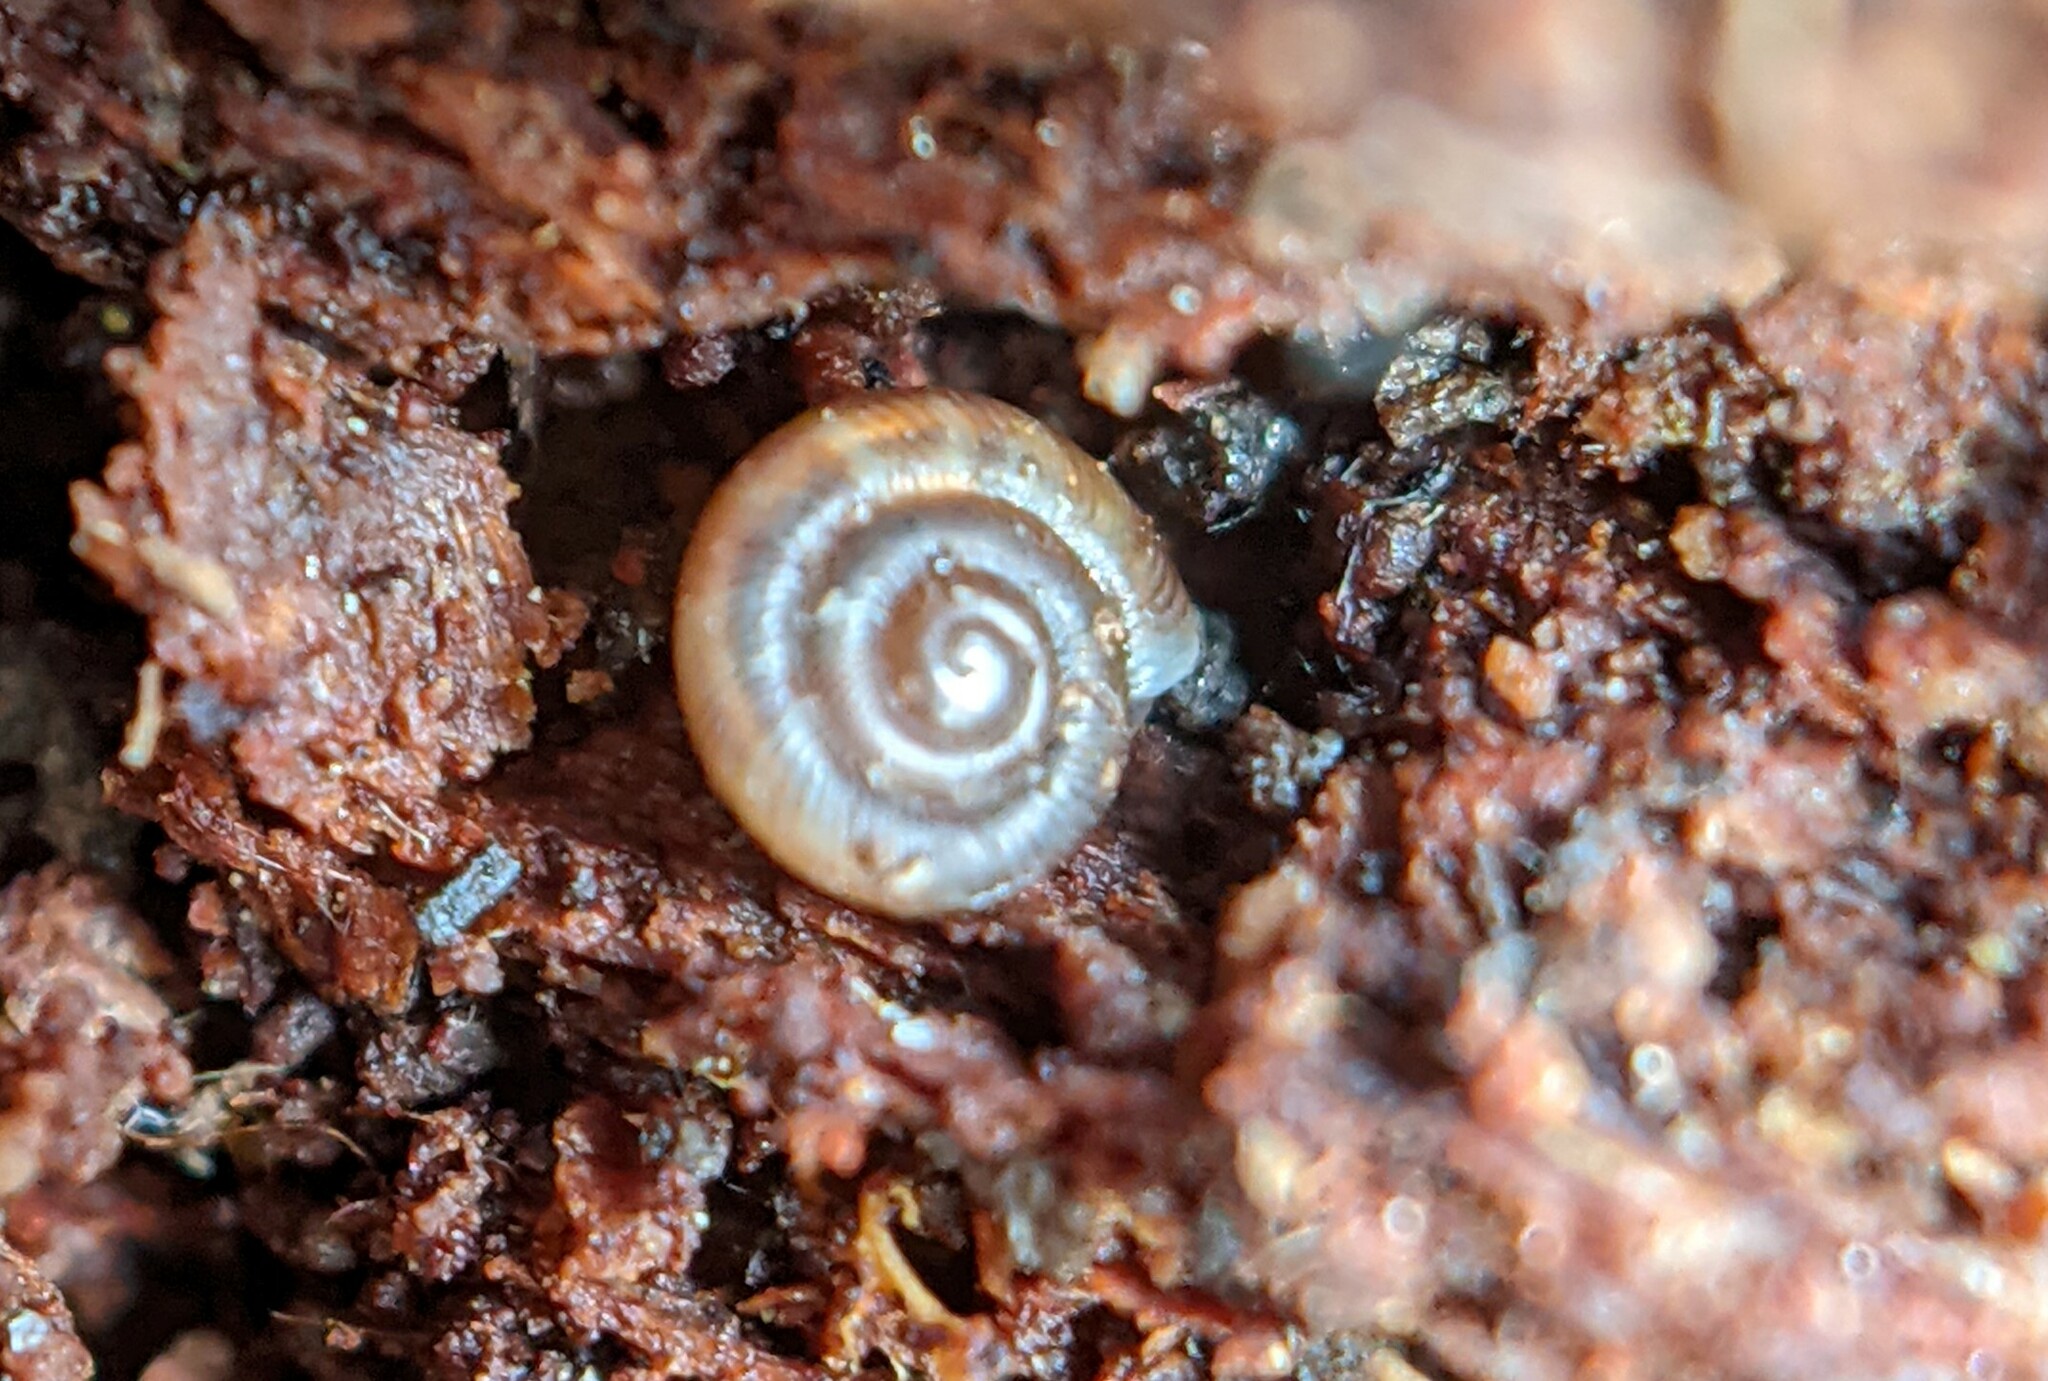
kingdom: Animalia
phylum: Mollusca
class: Gastropoda
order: Stylommatophora
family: Discidae
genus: Discus
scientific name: Discus rotundatus
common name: Rounded snail
